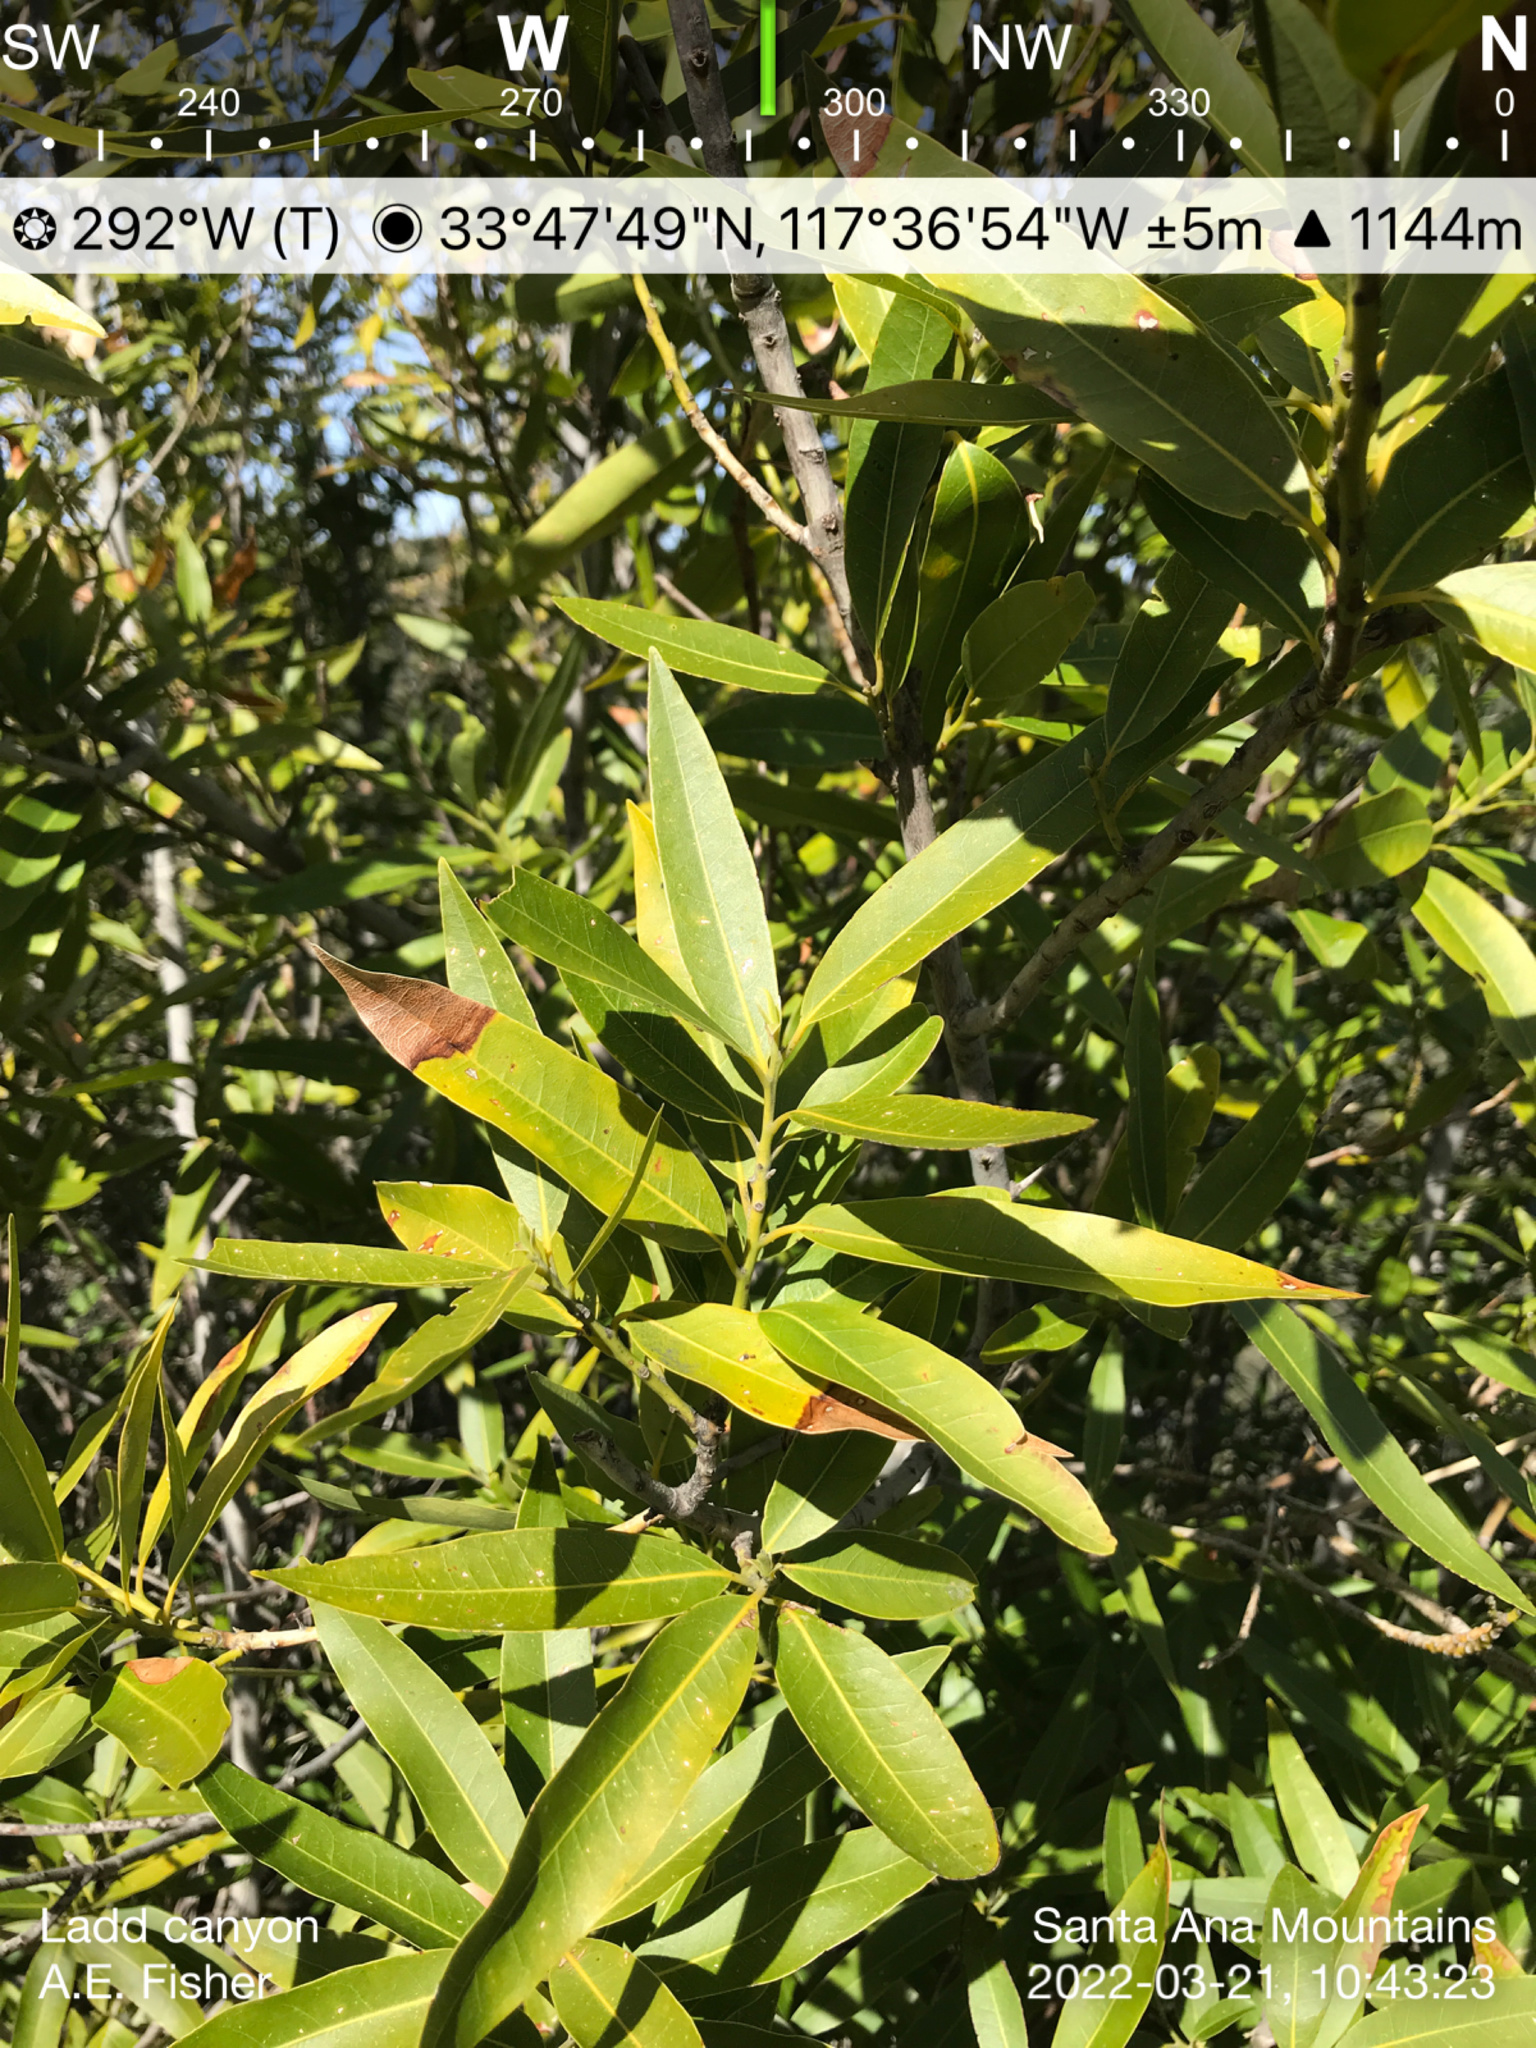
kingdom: Plantae
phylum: Tracheophyta
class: Magnoliopsida
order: Laurales
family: Lauraceae
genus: Umbellularia
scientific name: Umbellularia californica
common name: California bay
